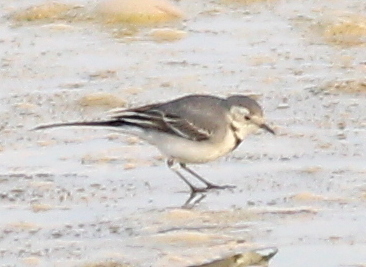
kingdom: Animalia
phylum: Chordata
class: Aves
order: Passeriformes
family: Motacillidae
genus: Motacilla
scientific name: Motacilla alba
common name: White wagtail
